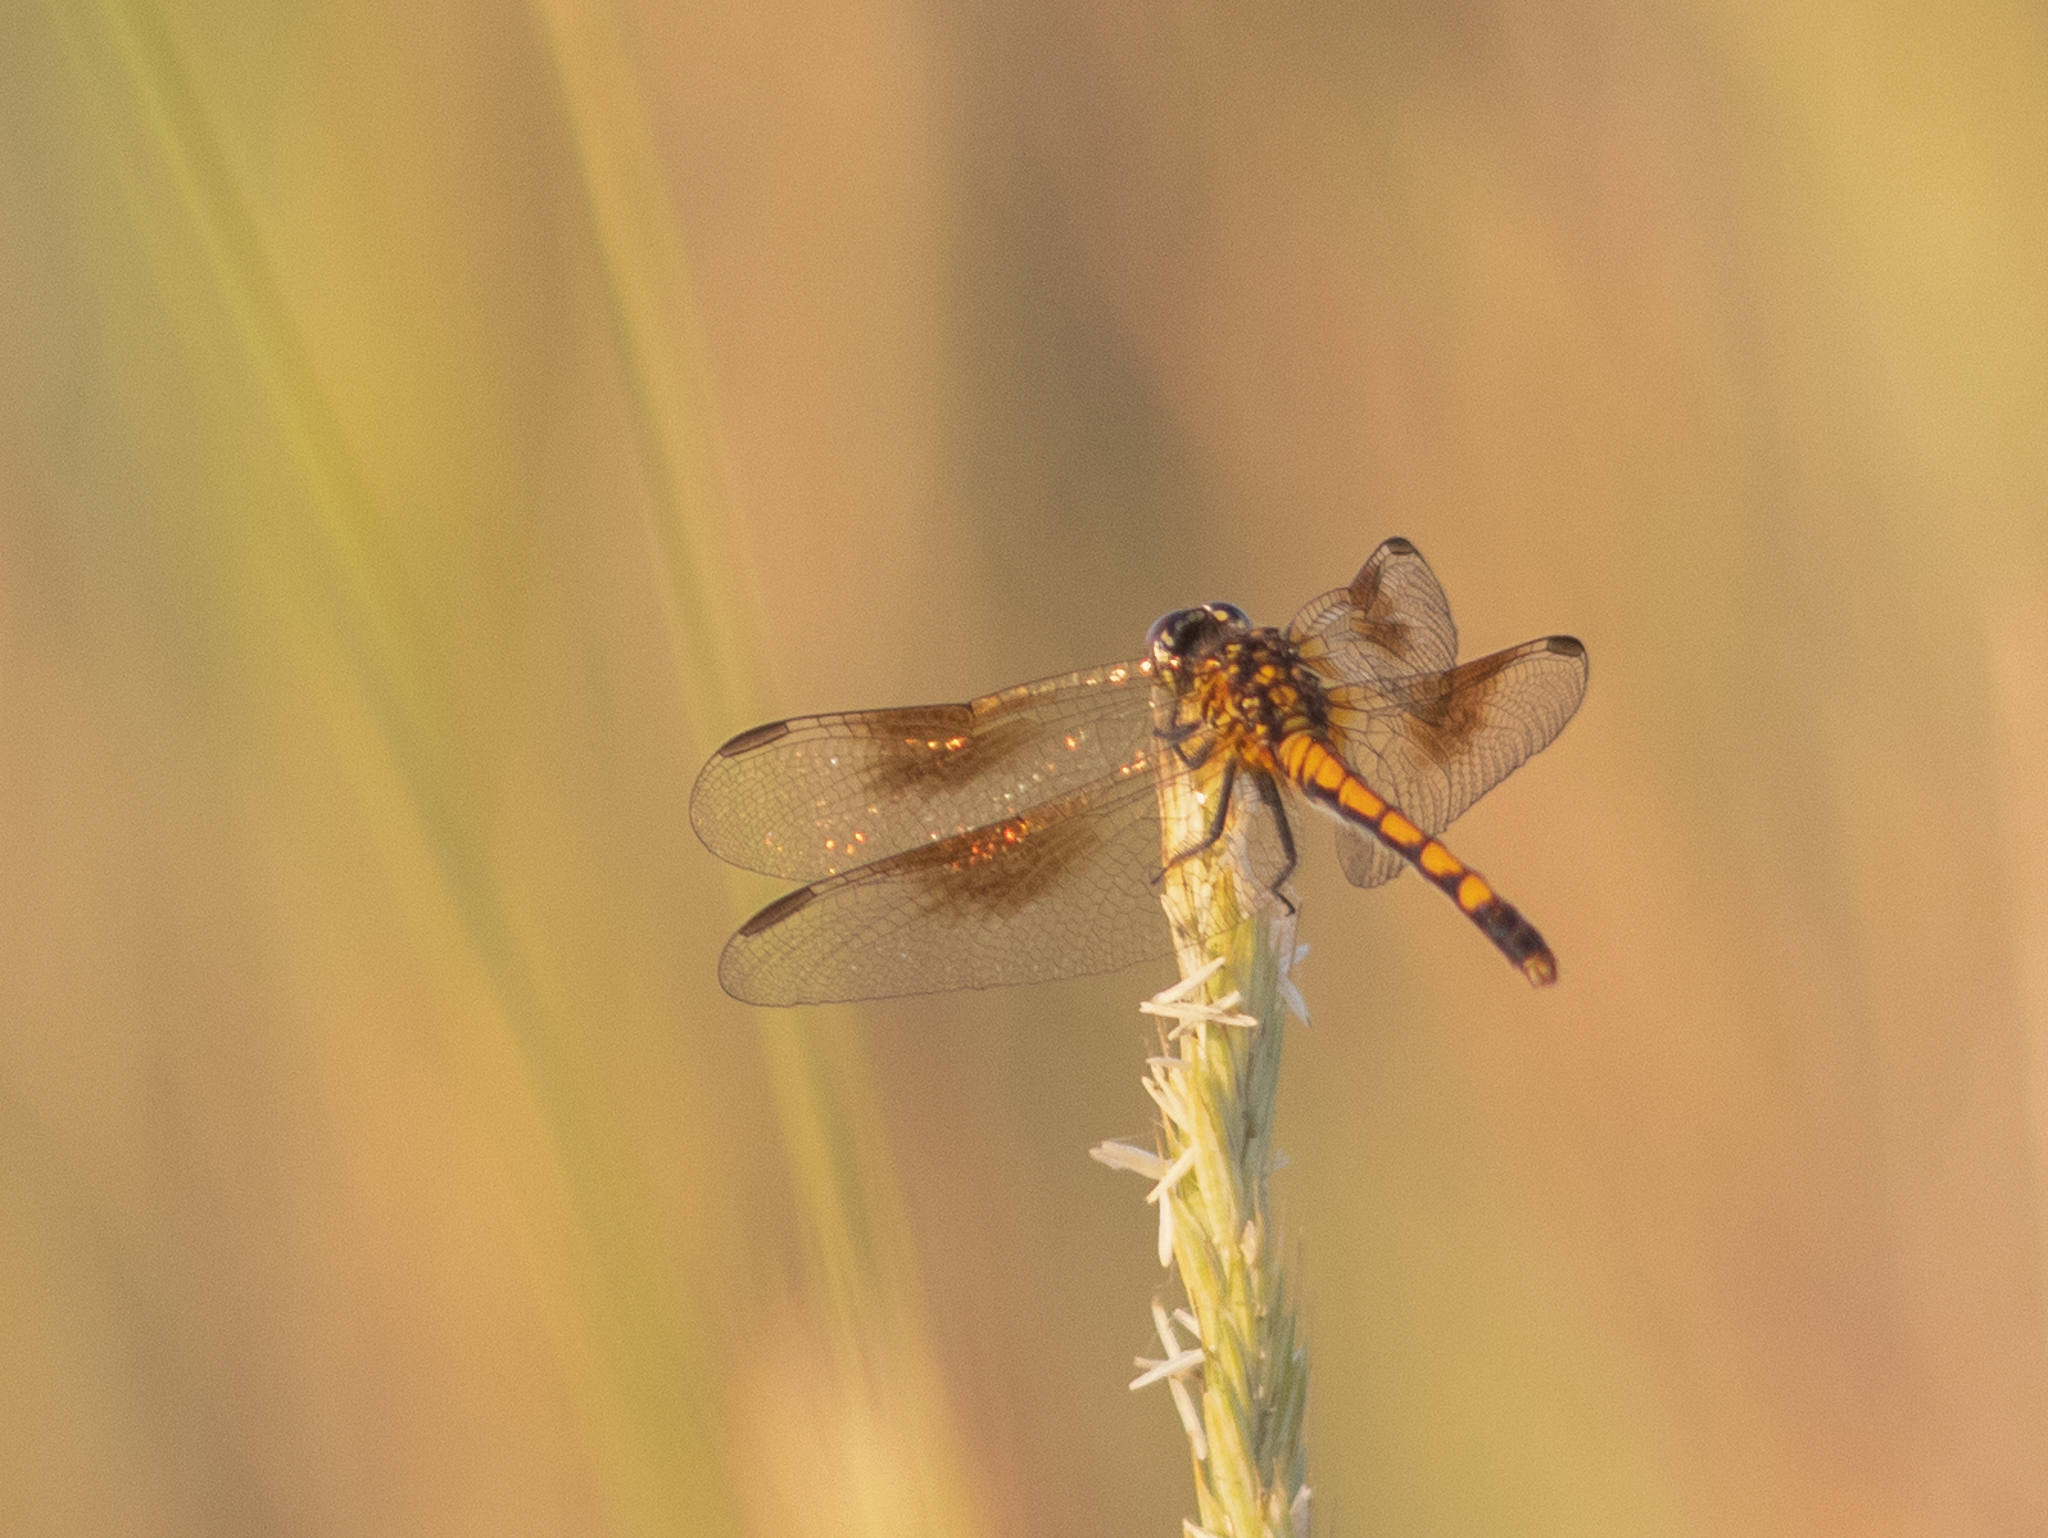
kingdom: Animalia
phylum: Arthropoda
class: Insecta
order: Odonata
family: Libellulidae
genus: Erythrodiplax
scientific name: Erythrodiplax berenice
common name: Seaside dragonlet
